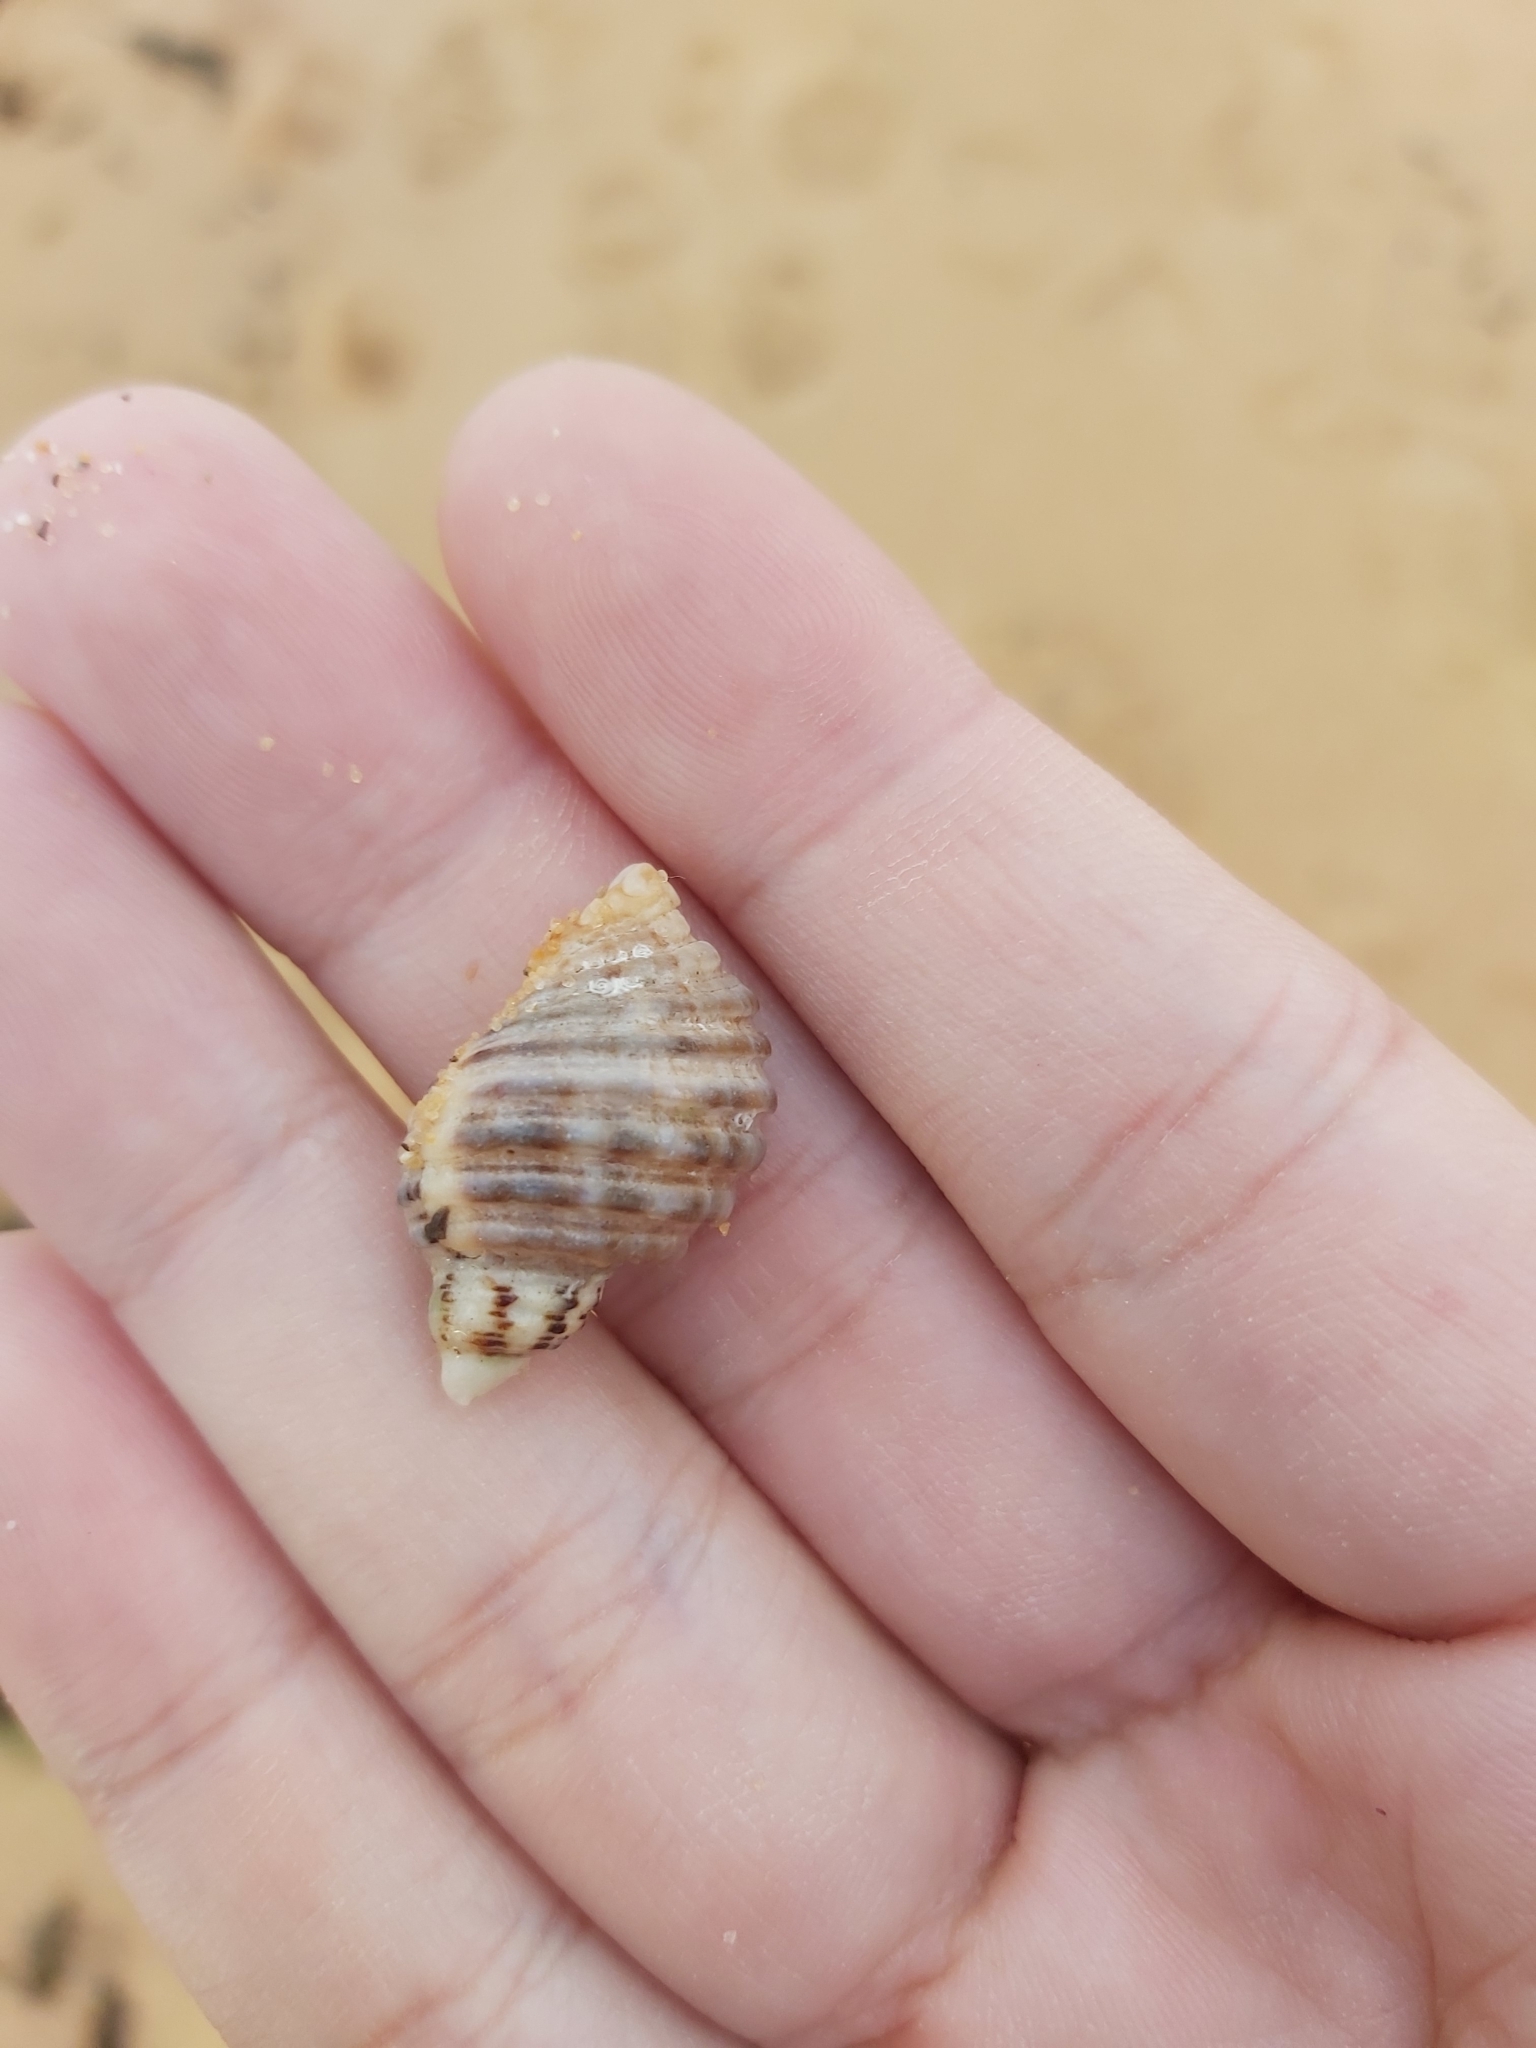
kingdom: Animalia
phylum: Mollusca
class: Gastropoda
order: Neogastropoda
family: Muricidae
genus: Dicathais
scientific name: Dicathais orbita
